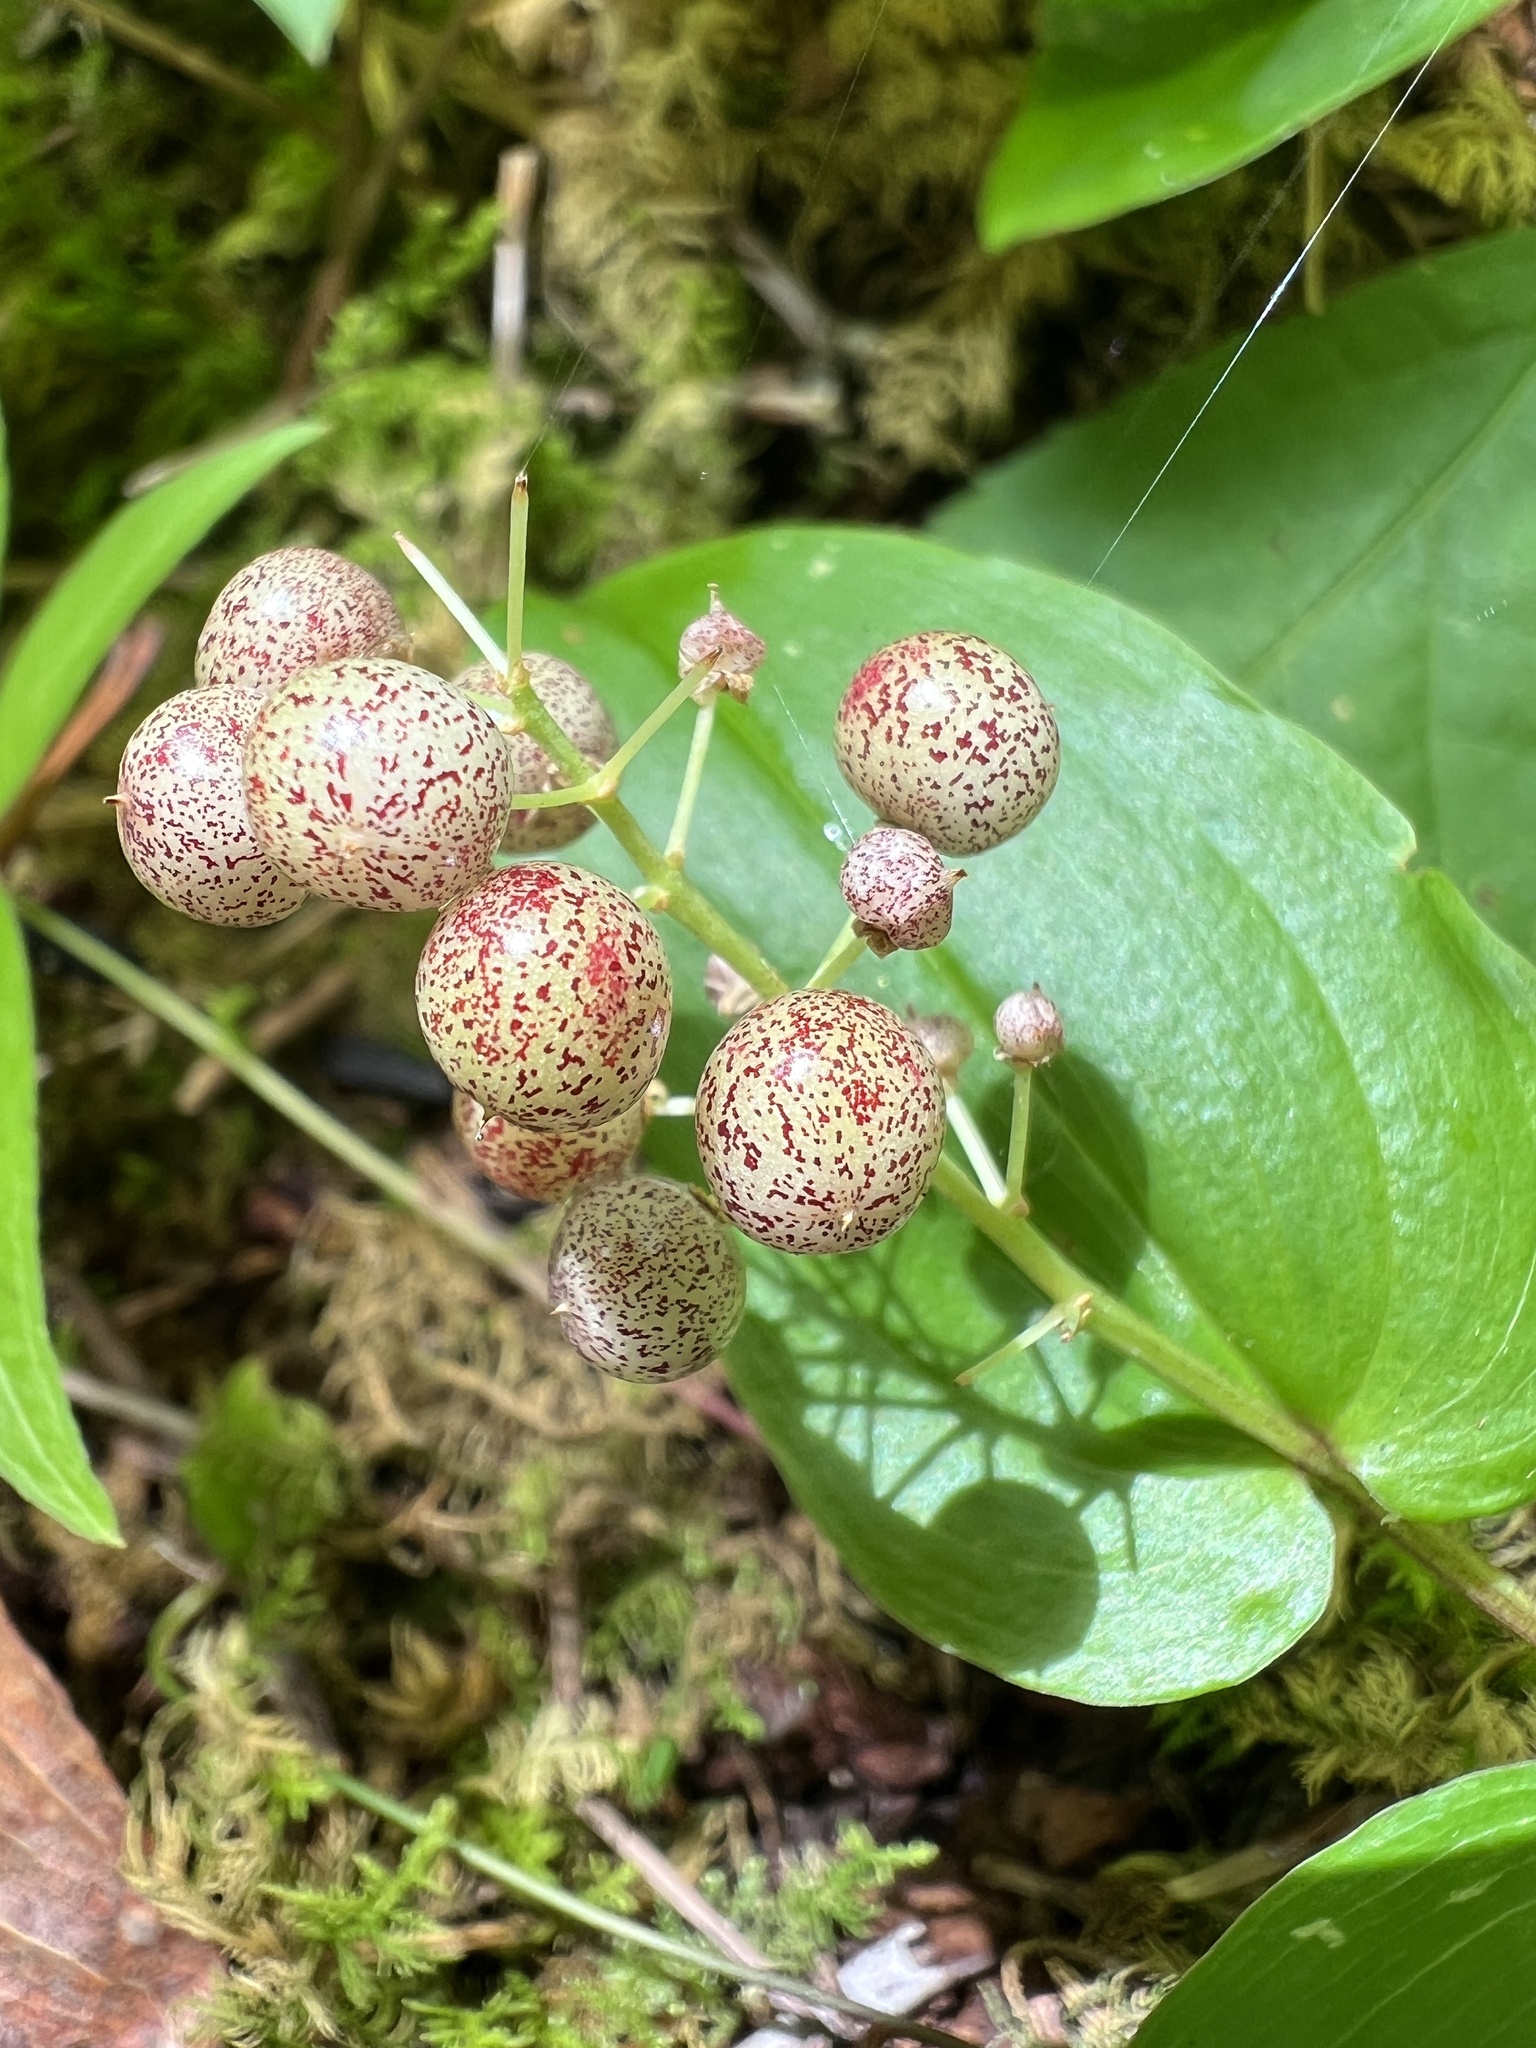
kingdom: Plantae
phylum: Tracheophyta
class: Liliopsida
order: Asparagales
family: Asparagaceae
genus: Maianthemum
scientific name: Maianthemum canadense
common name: False lily-of-the-valley
